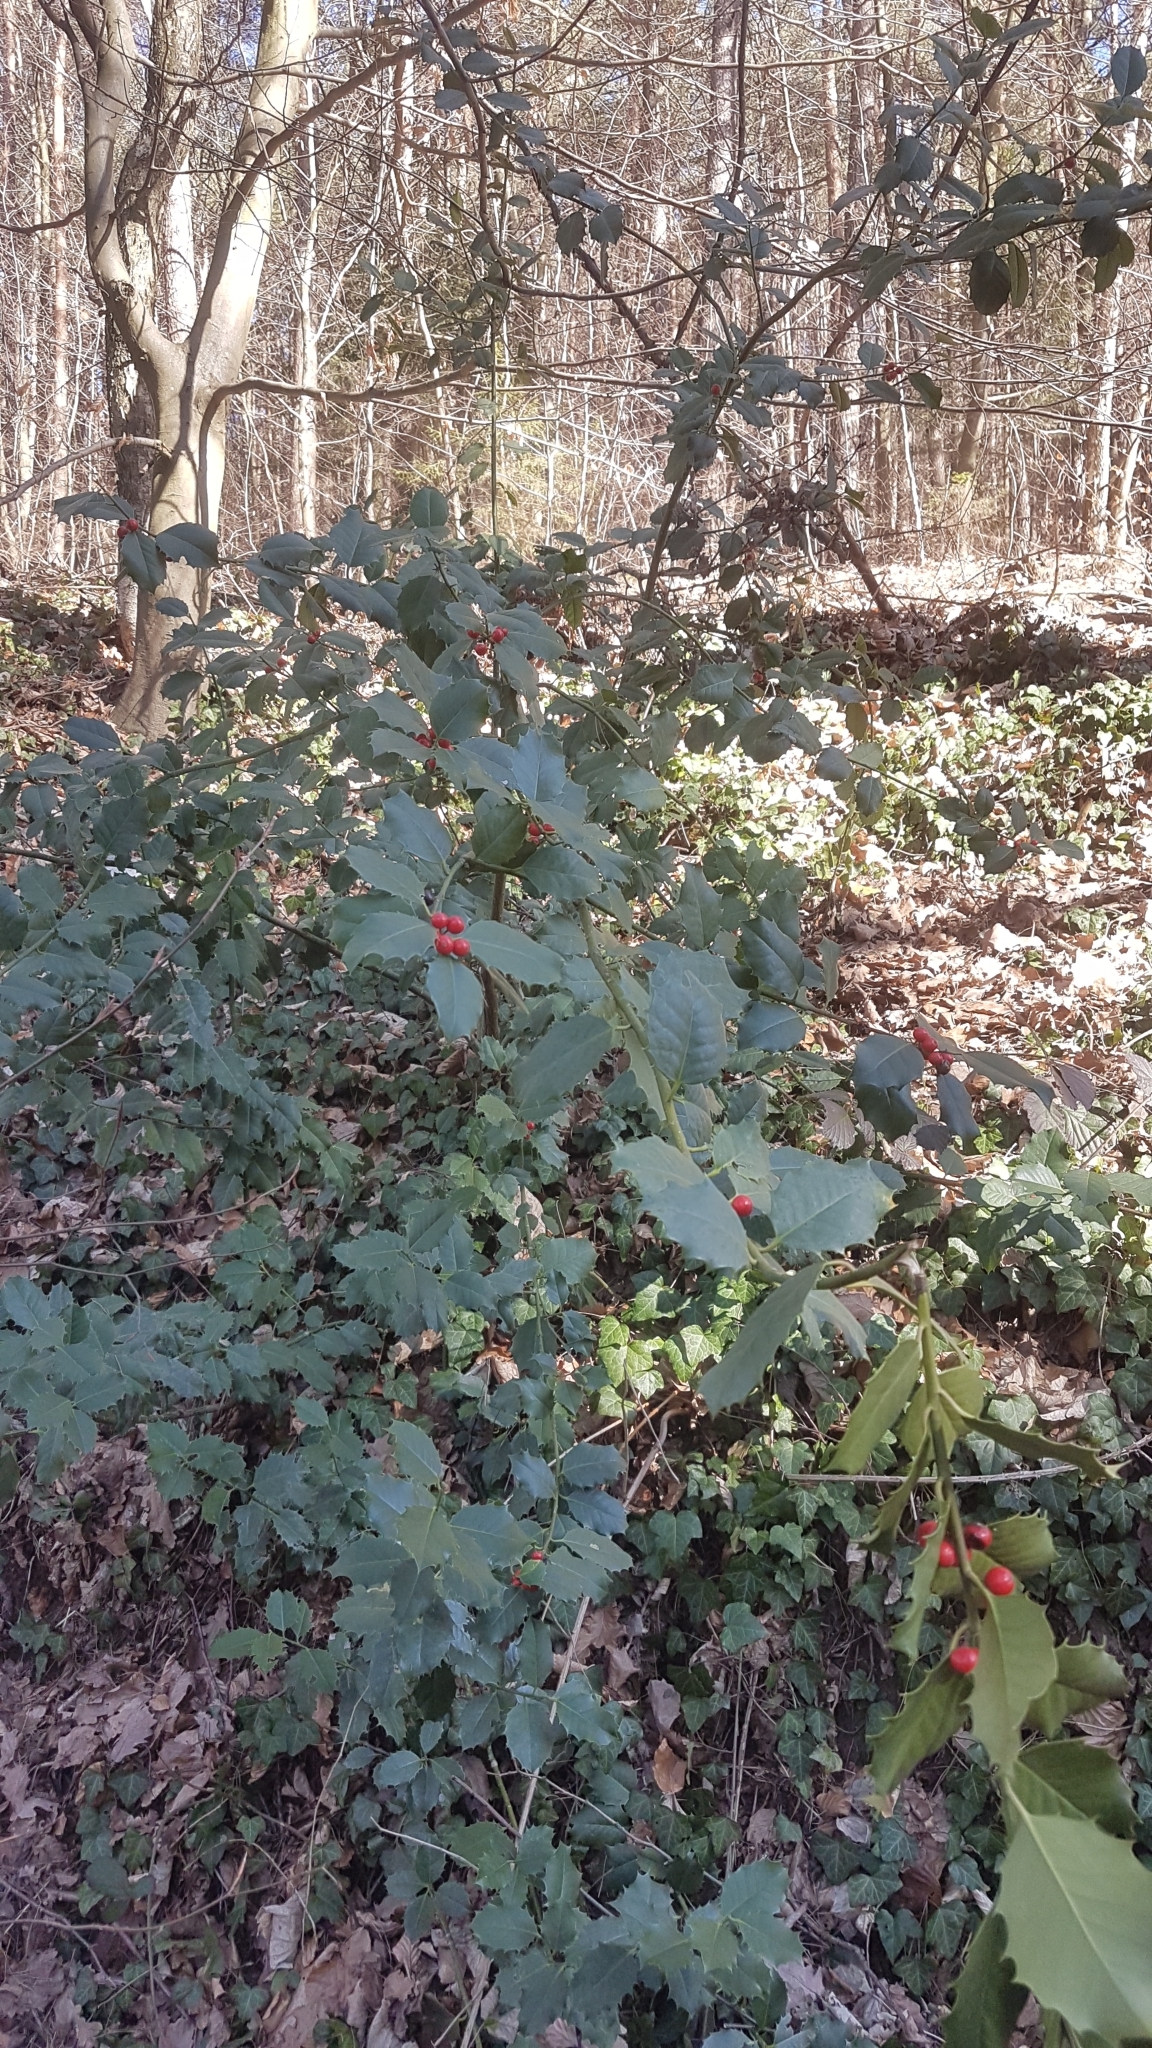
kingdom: Plantae
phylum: Tracheophyta
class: Magnoliopsida
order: Aquifoliales
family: Aquifoliaceae
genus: Ilex
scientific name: Ilex aquifolium
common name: English holly
